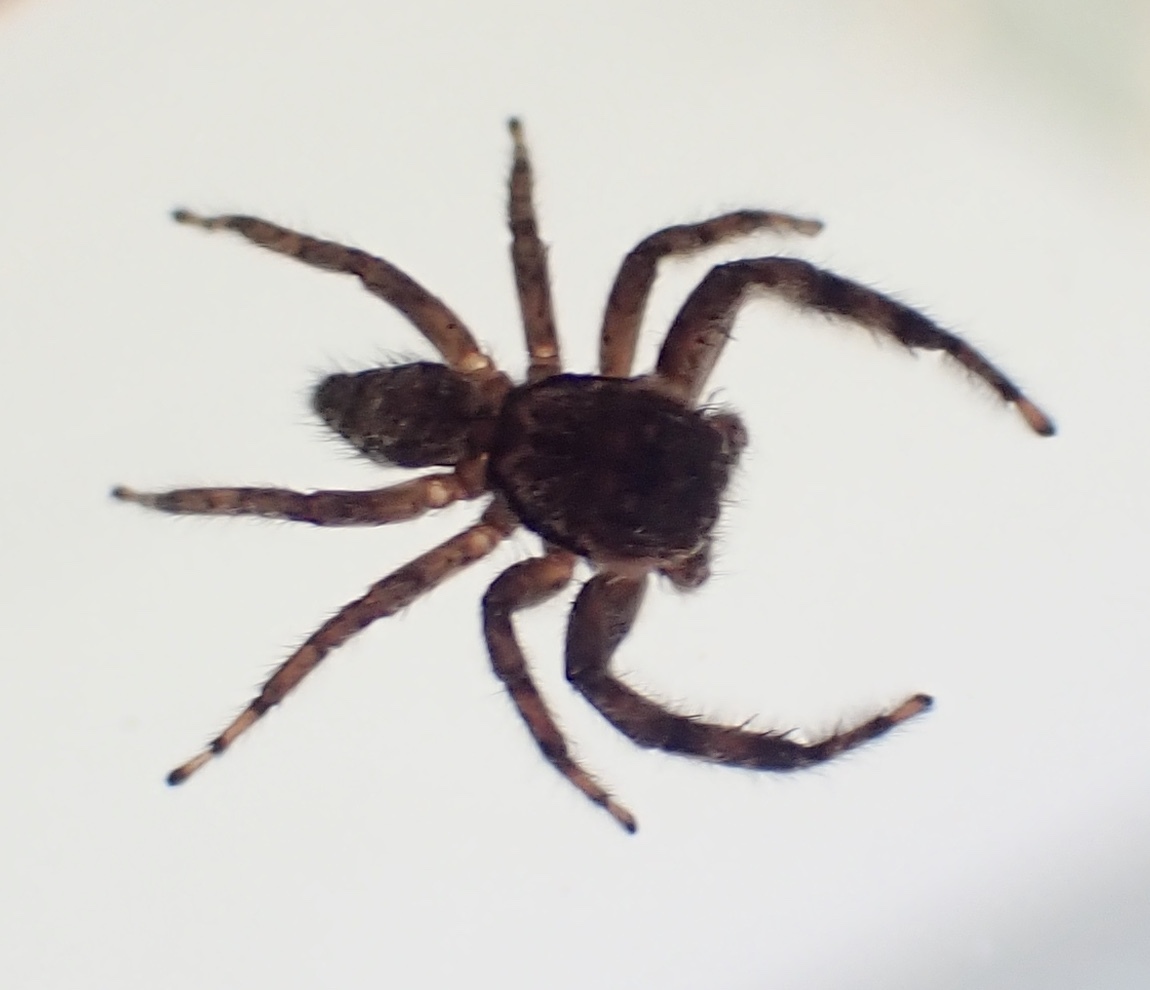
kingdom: Animalia
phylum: Arthropoda
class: Arachnida
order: Araneae
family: Salticidae
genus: Platycryptus
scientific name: Platycryptus undatus
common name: Tan jumping spider
